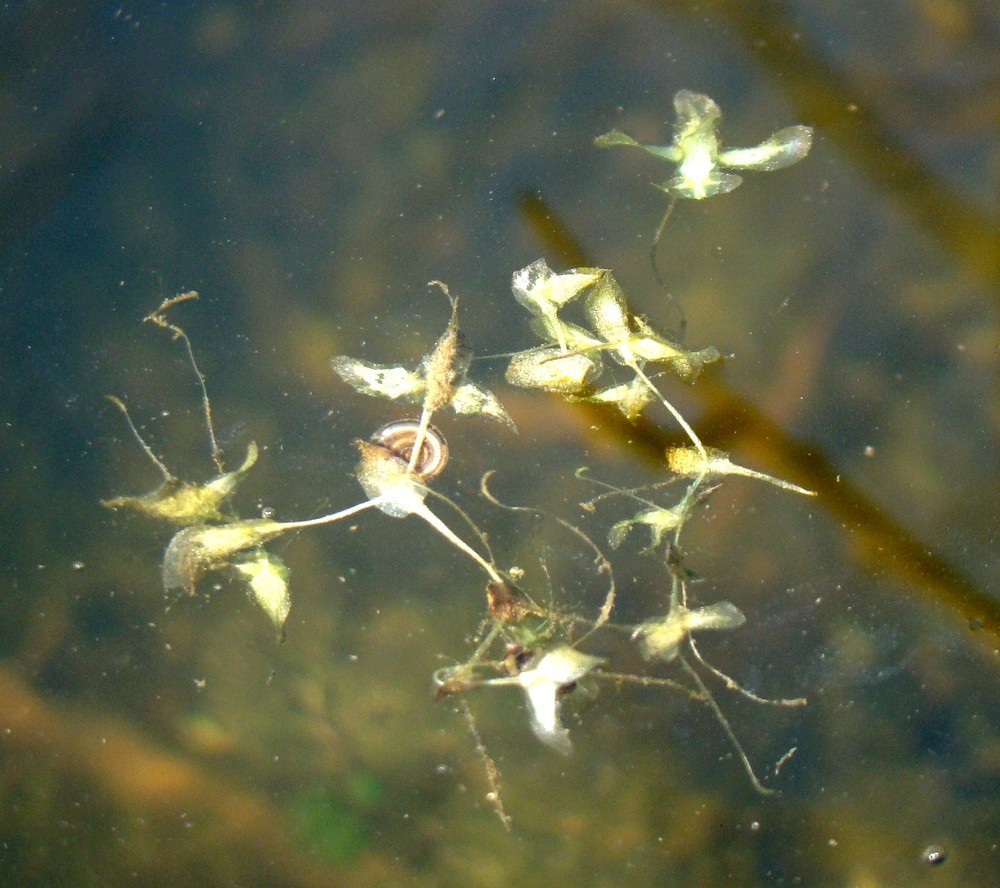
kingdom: Plantae
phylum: Tracheophyta
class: Liliopsida
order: Alismatales
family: Araceae
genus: Lemna
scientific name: Lemna trisulca
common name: Ivy-leaved duckweed
